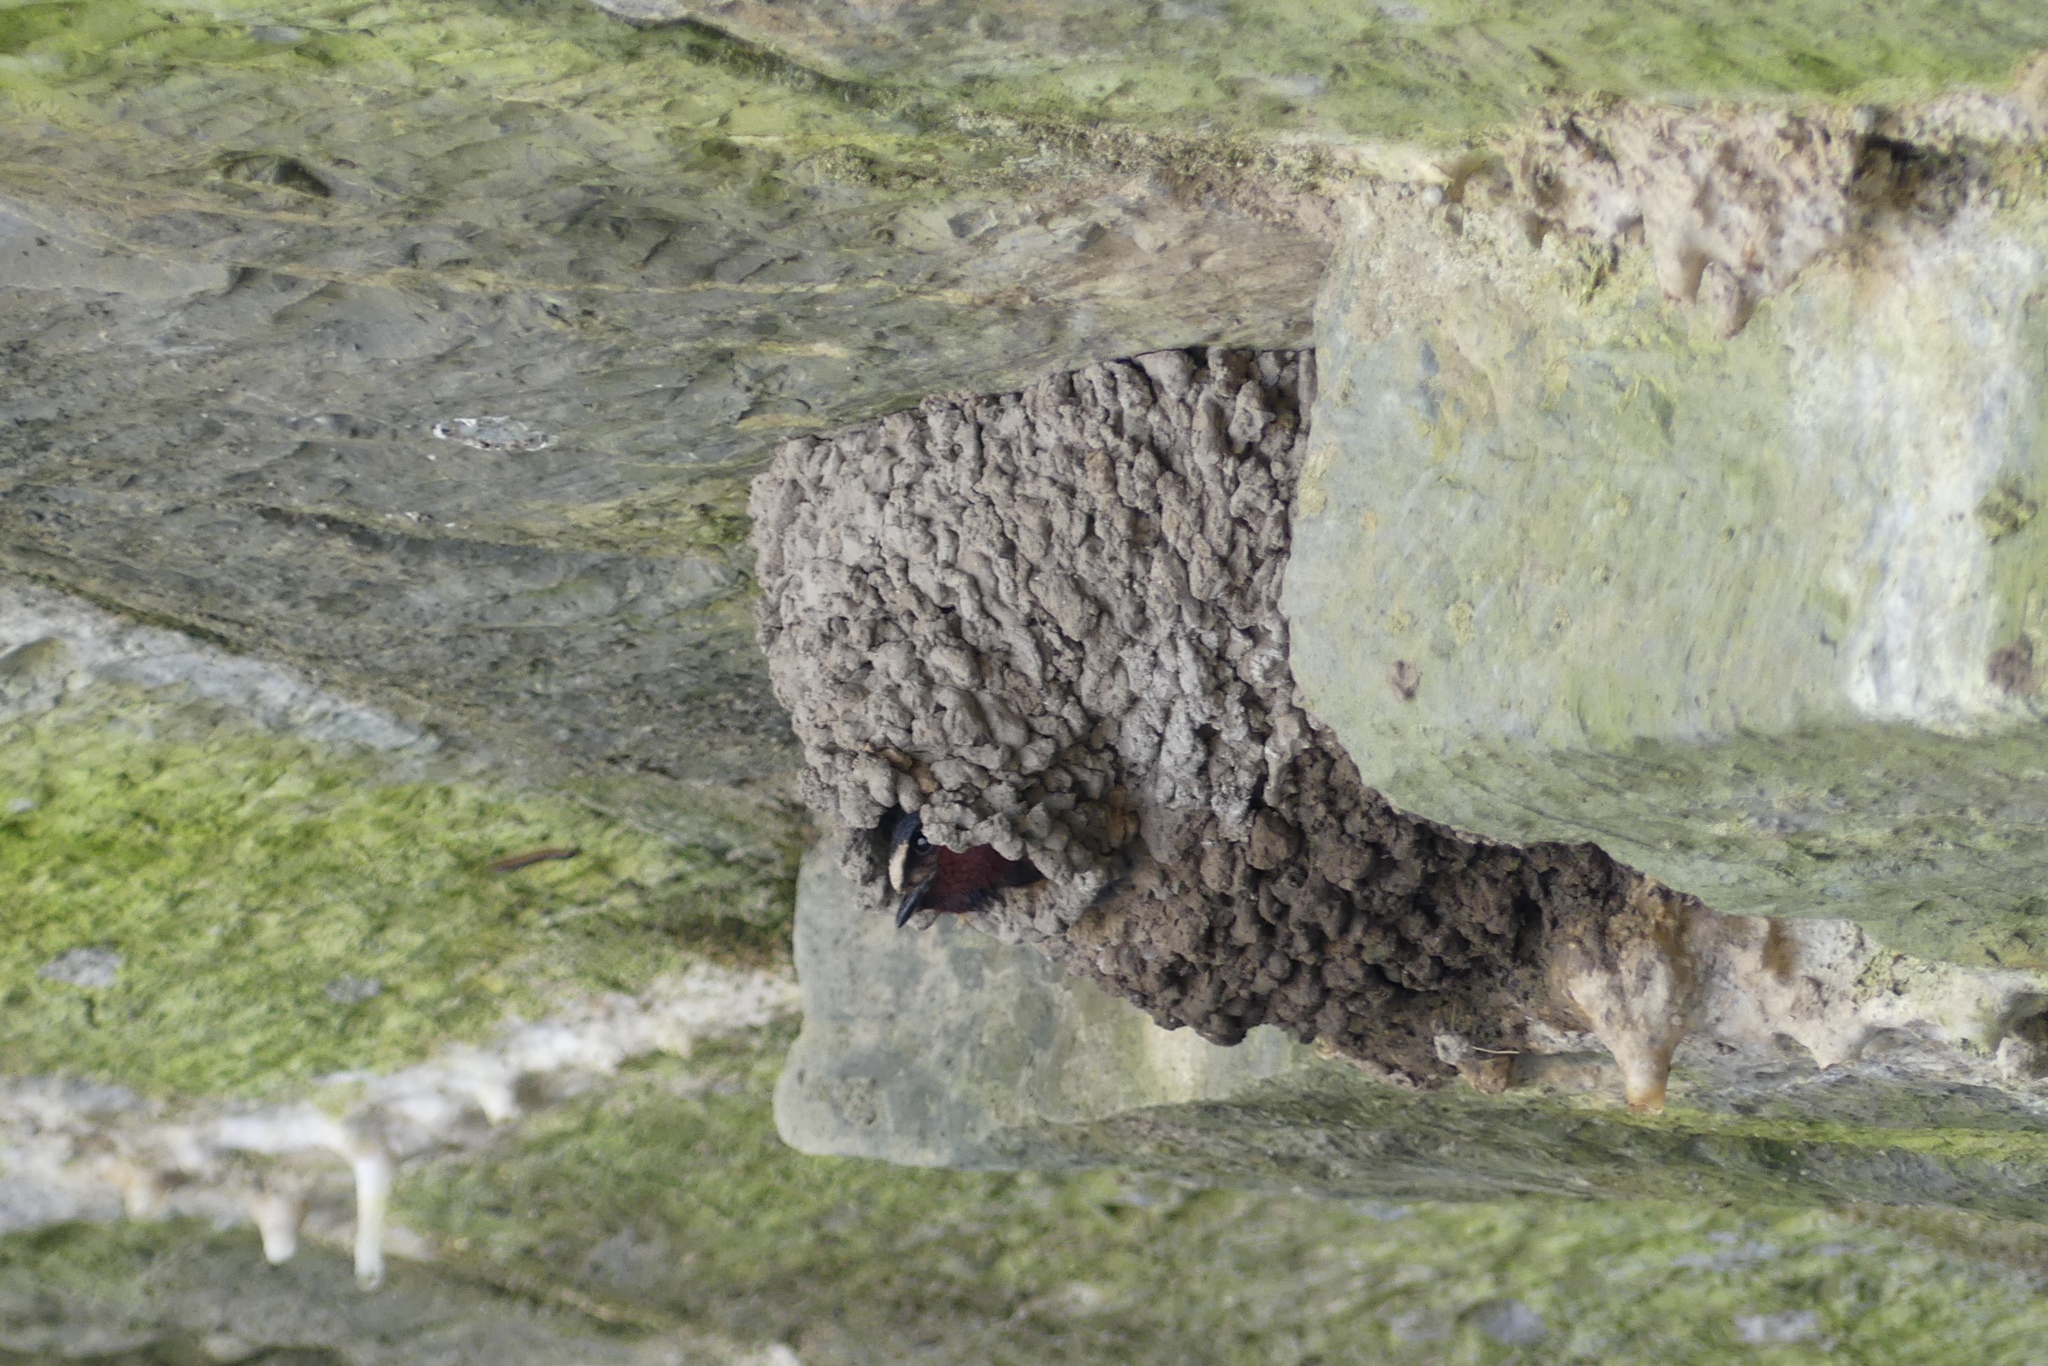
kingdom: Animalia
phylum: Chordata
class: Aves
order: Passeriformes
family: Hirundinidae
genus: Petrochelidon
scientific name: Petrochelidon pyrrhonota
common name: American cliff swallow
